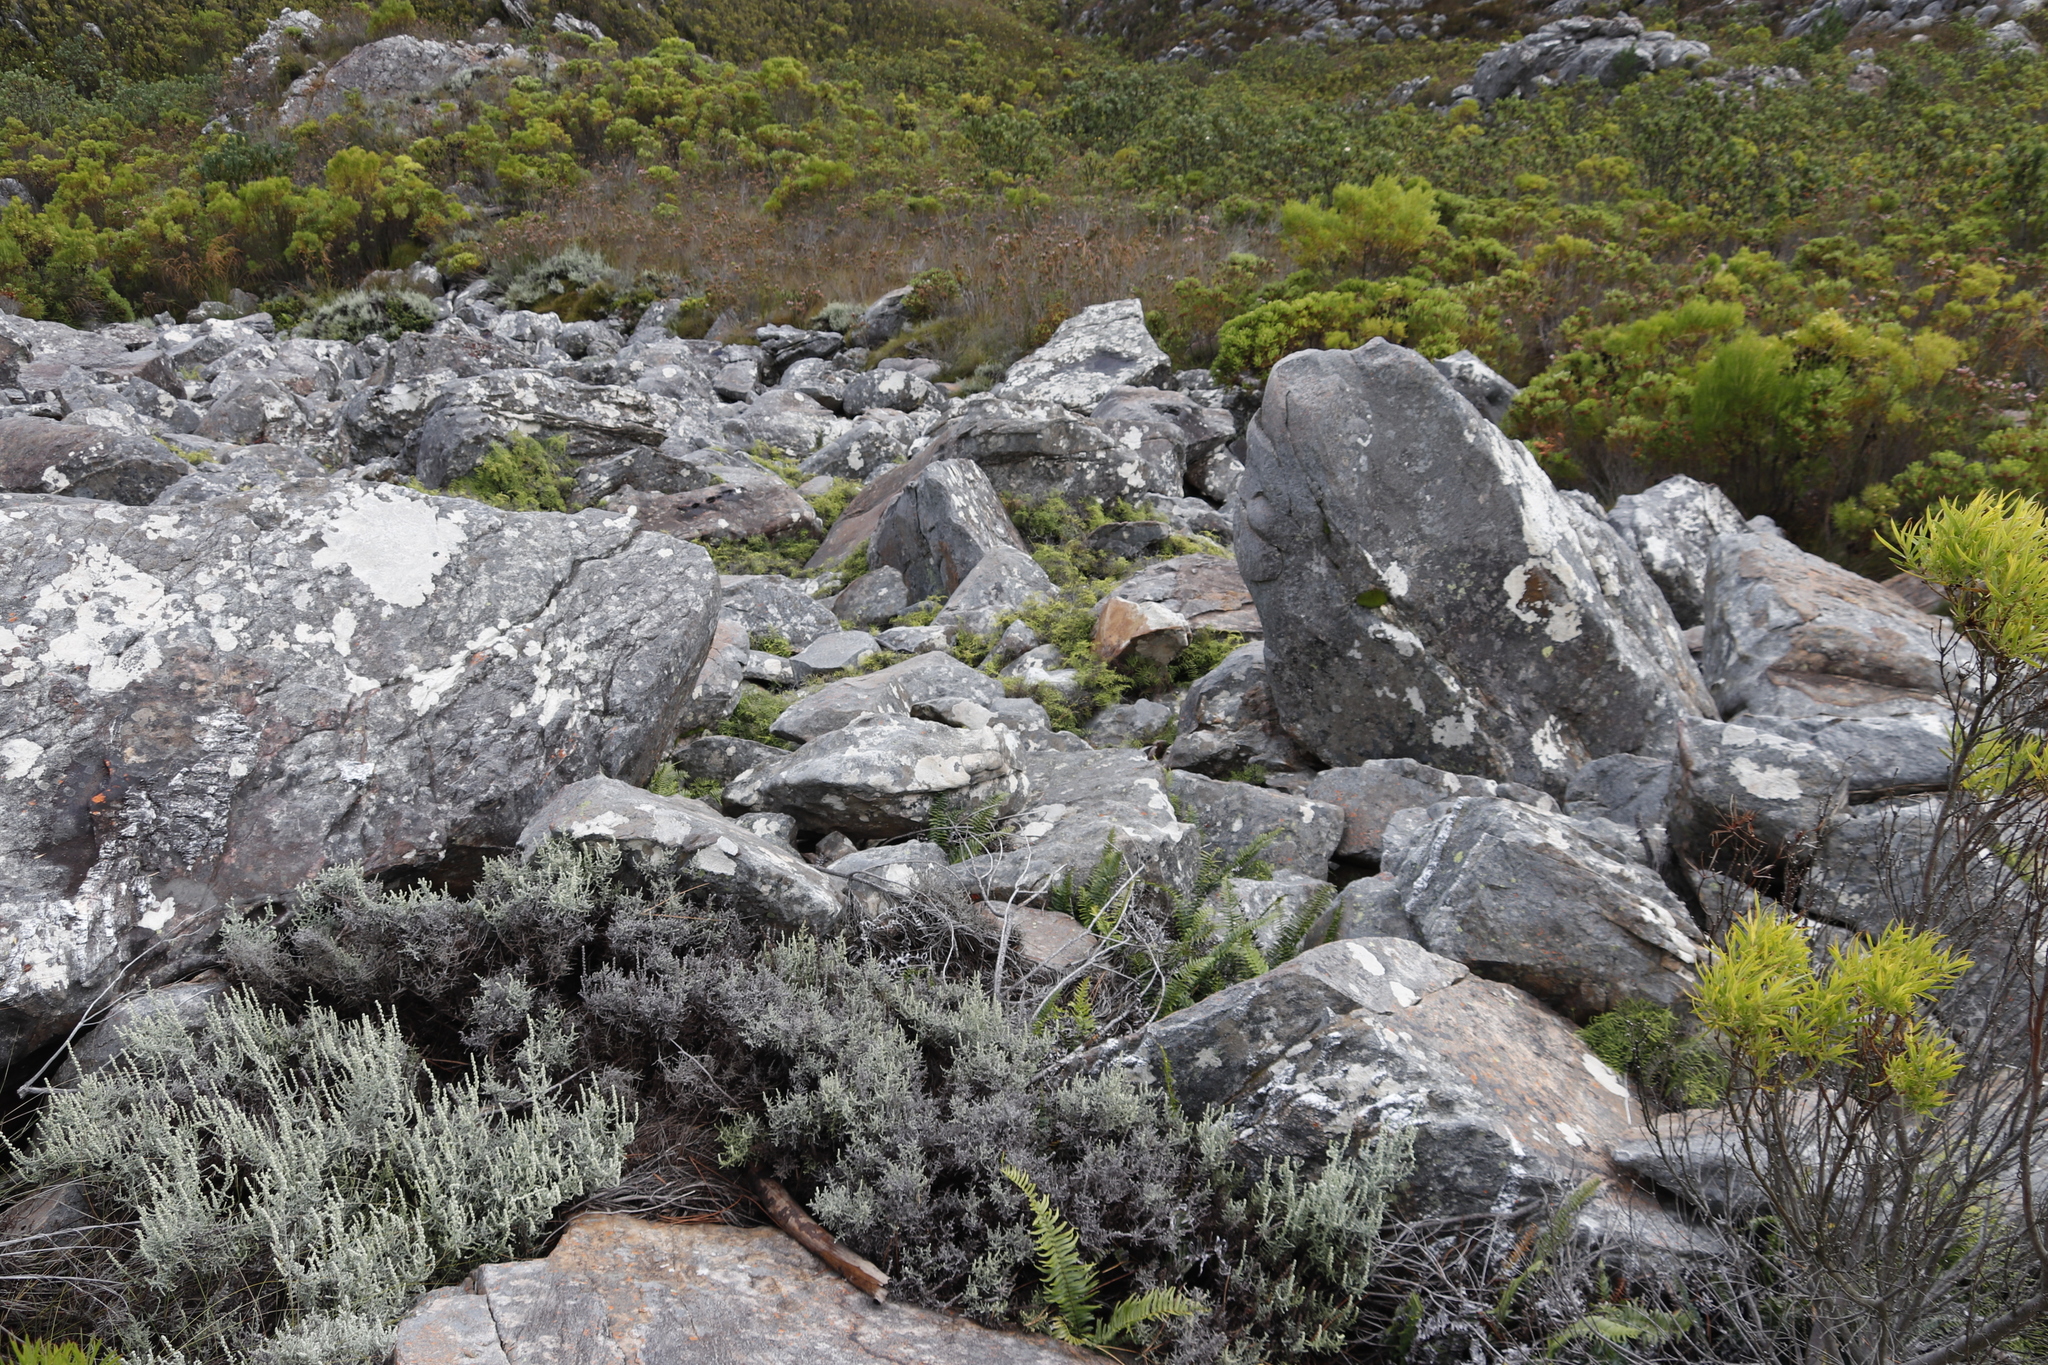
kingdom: Plantae
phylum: Tracheophyta
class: Polypodiopsida
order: Gleicheniales
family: Gleicheniaceae
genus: Gleichenia
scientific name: Gleichenia polypodioides
